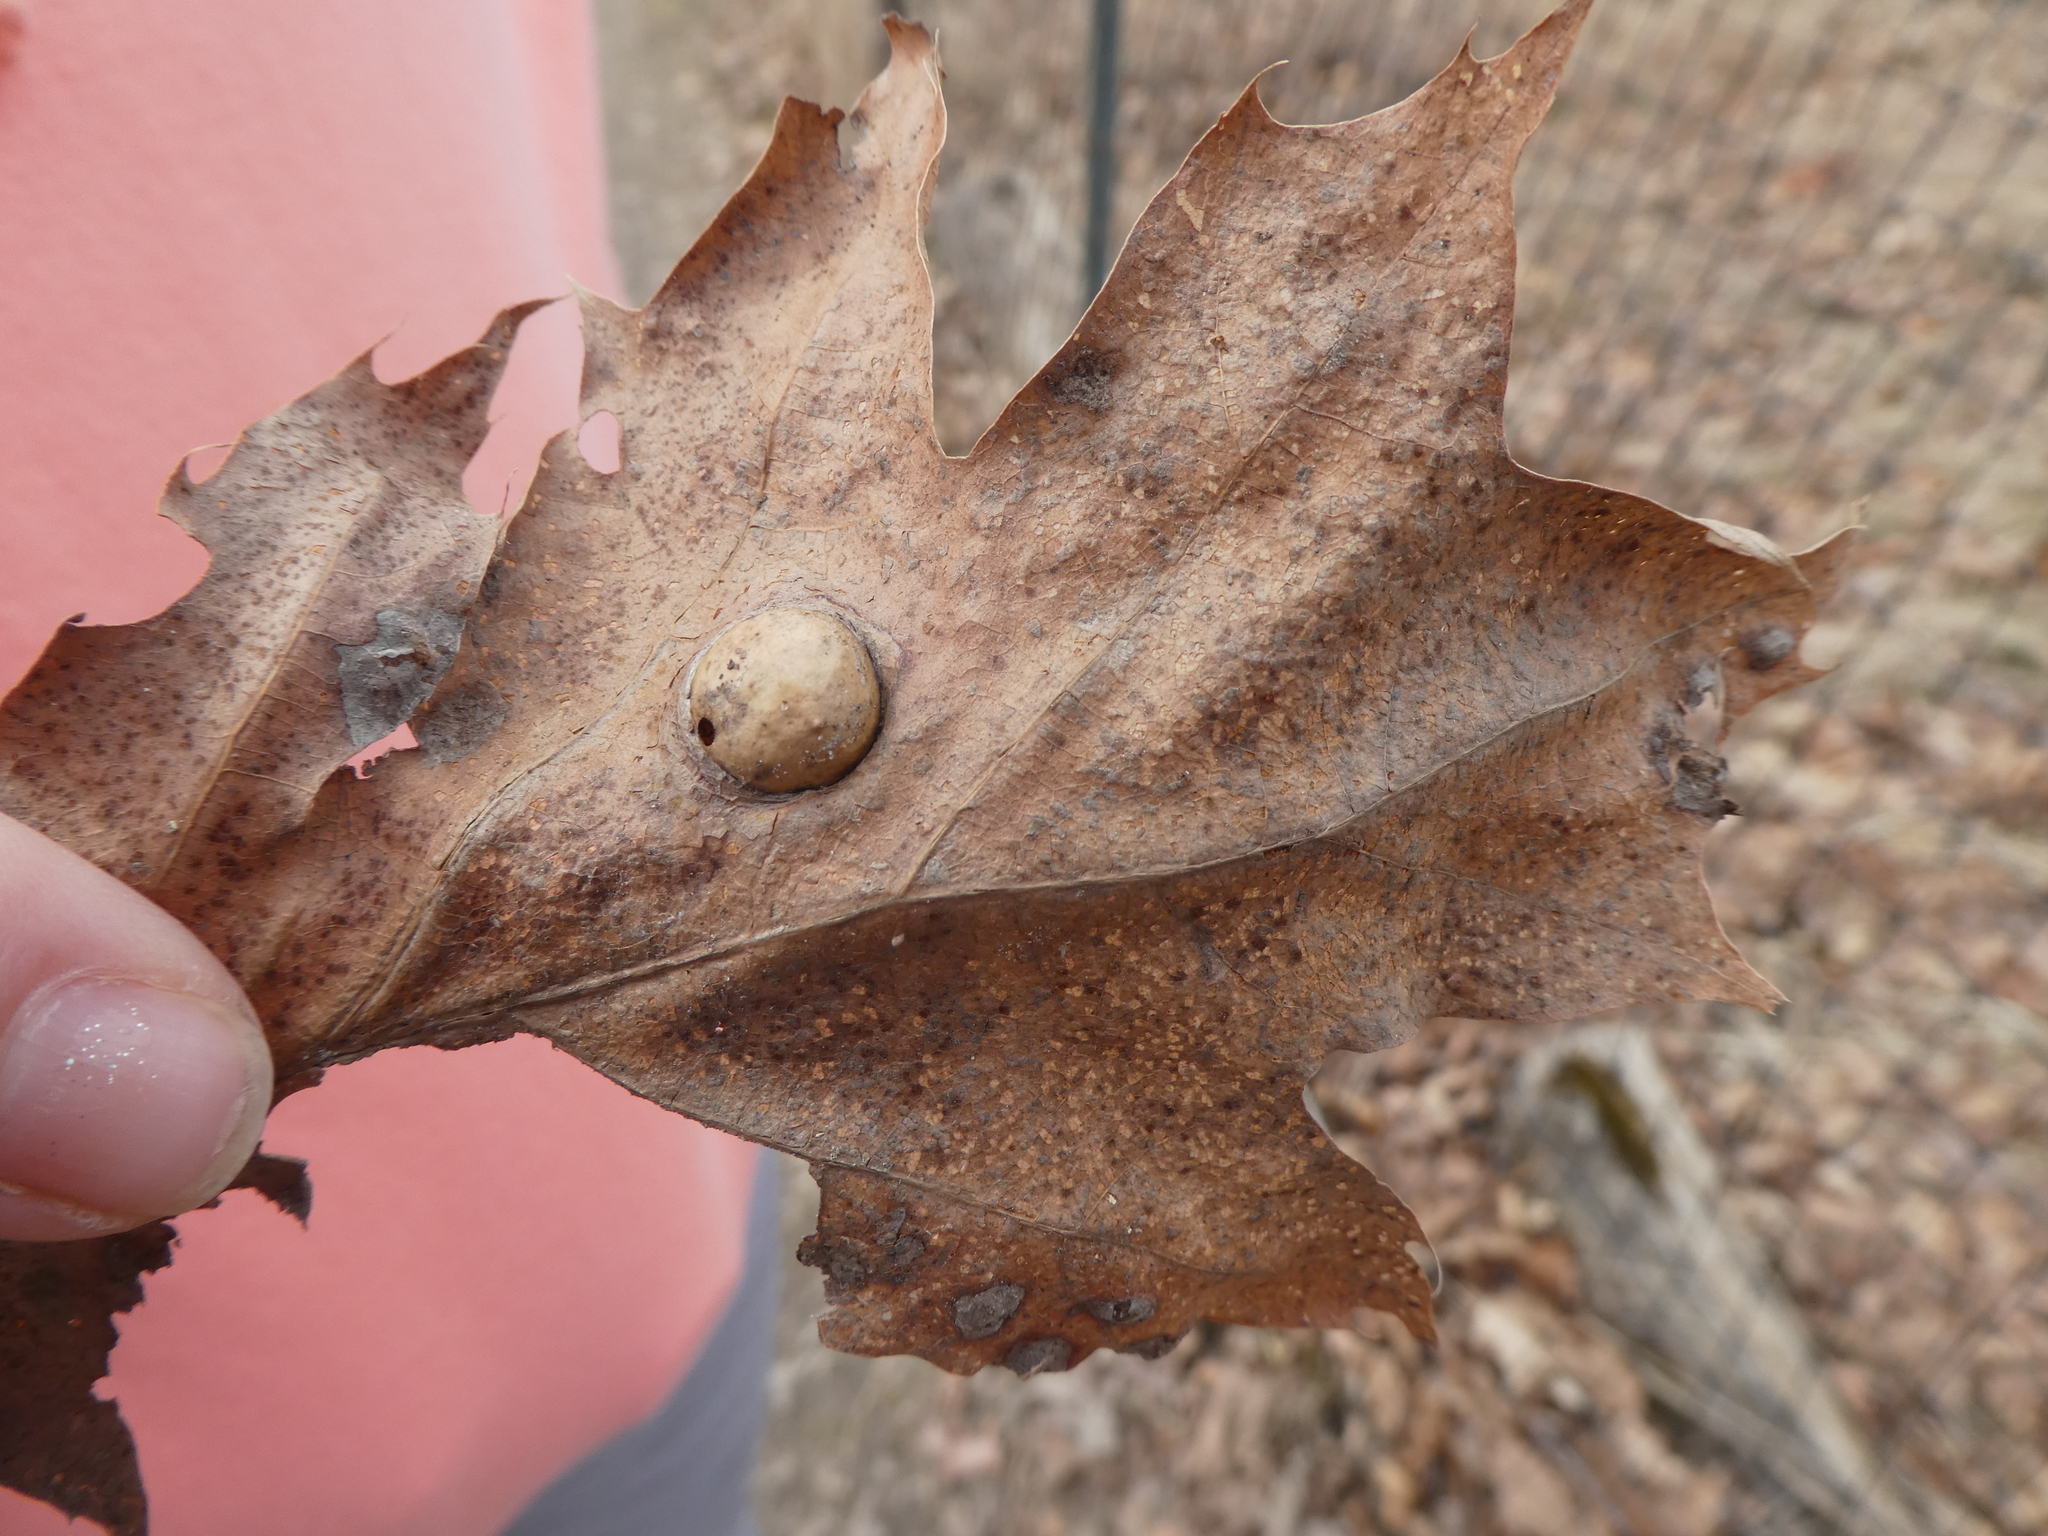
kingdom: Animalia
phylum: Arthropoda
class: Insecta
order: Hymenoptera
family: Cynipidae
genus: Amphibolips
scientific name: Amphibolips
